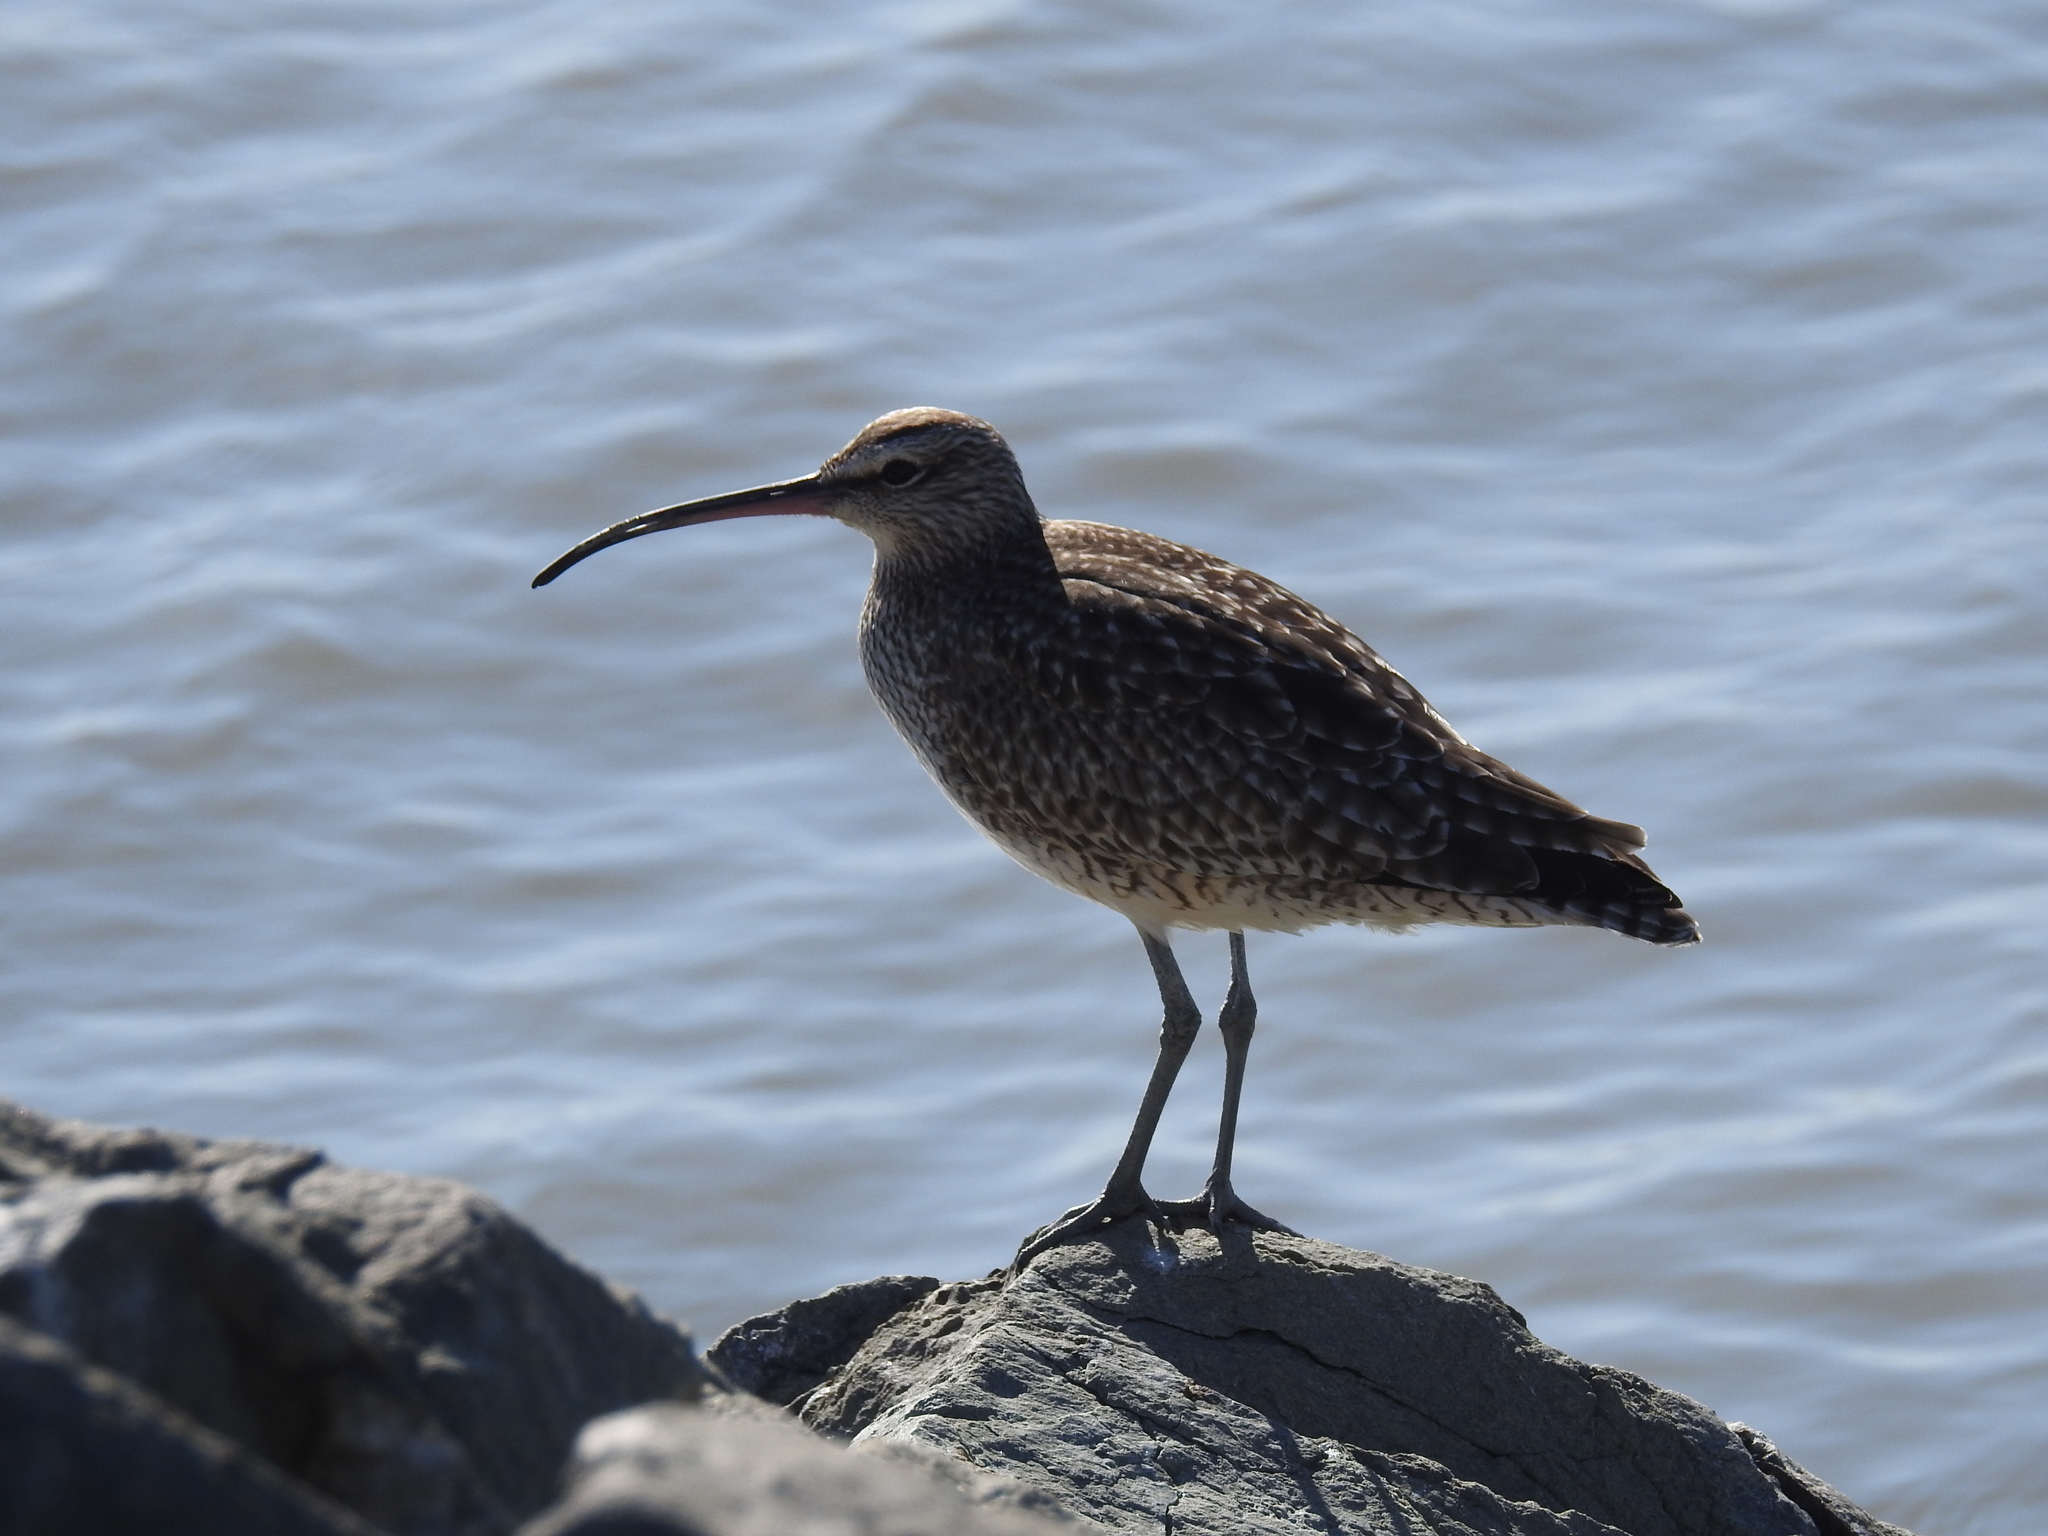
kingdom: Animalia
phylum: Chordata
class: Aves
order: Charadriiformes
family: Scolopacidae
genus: Numenius
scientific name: Numenius phaeopus
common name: Whimbrel
